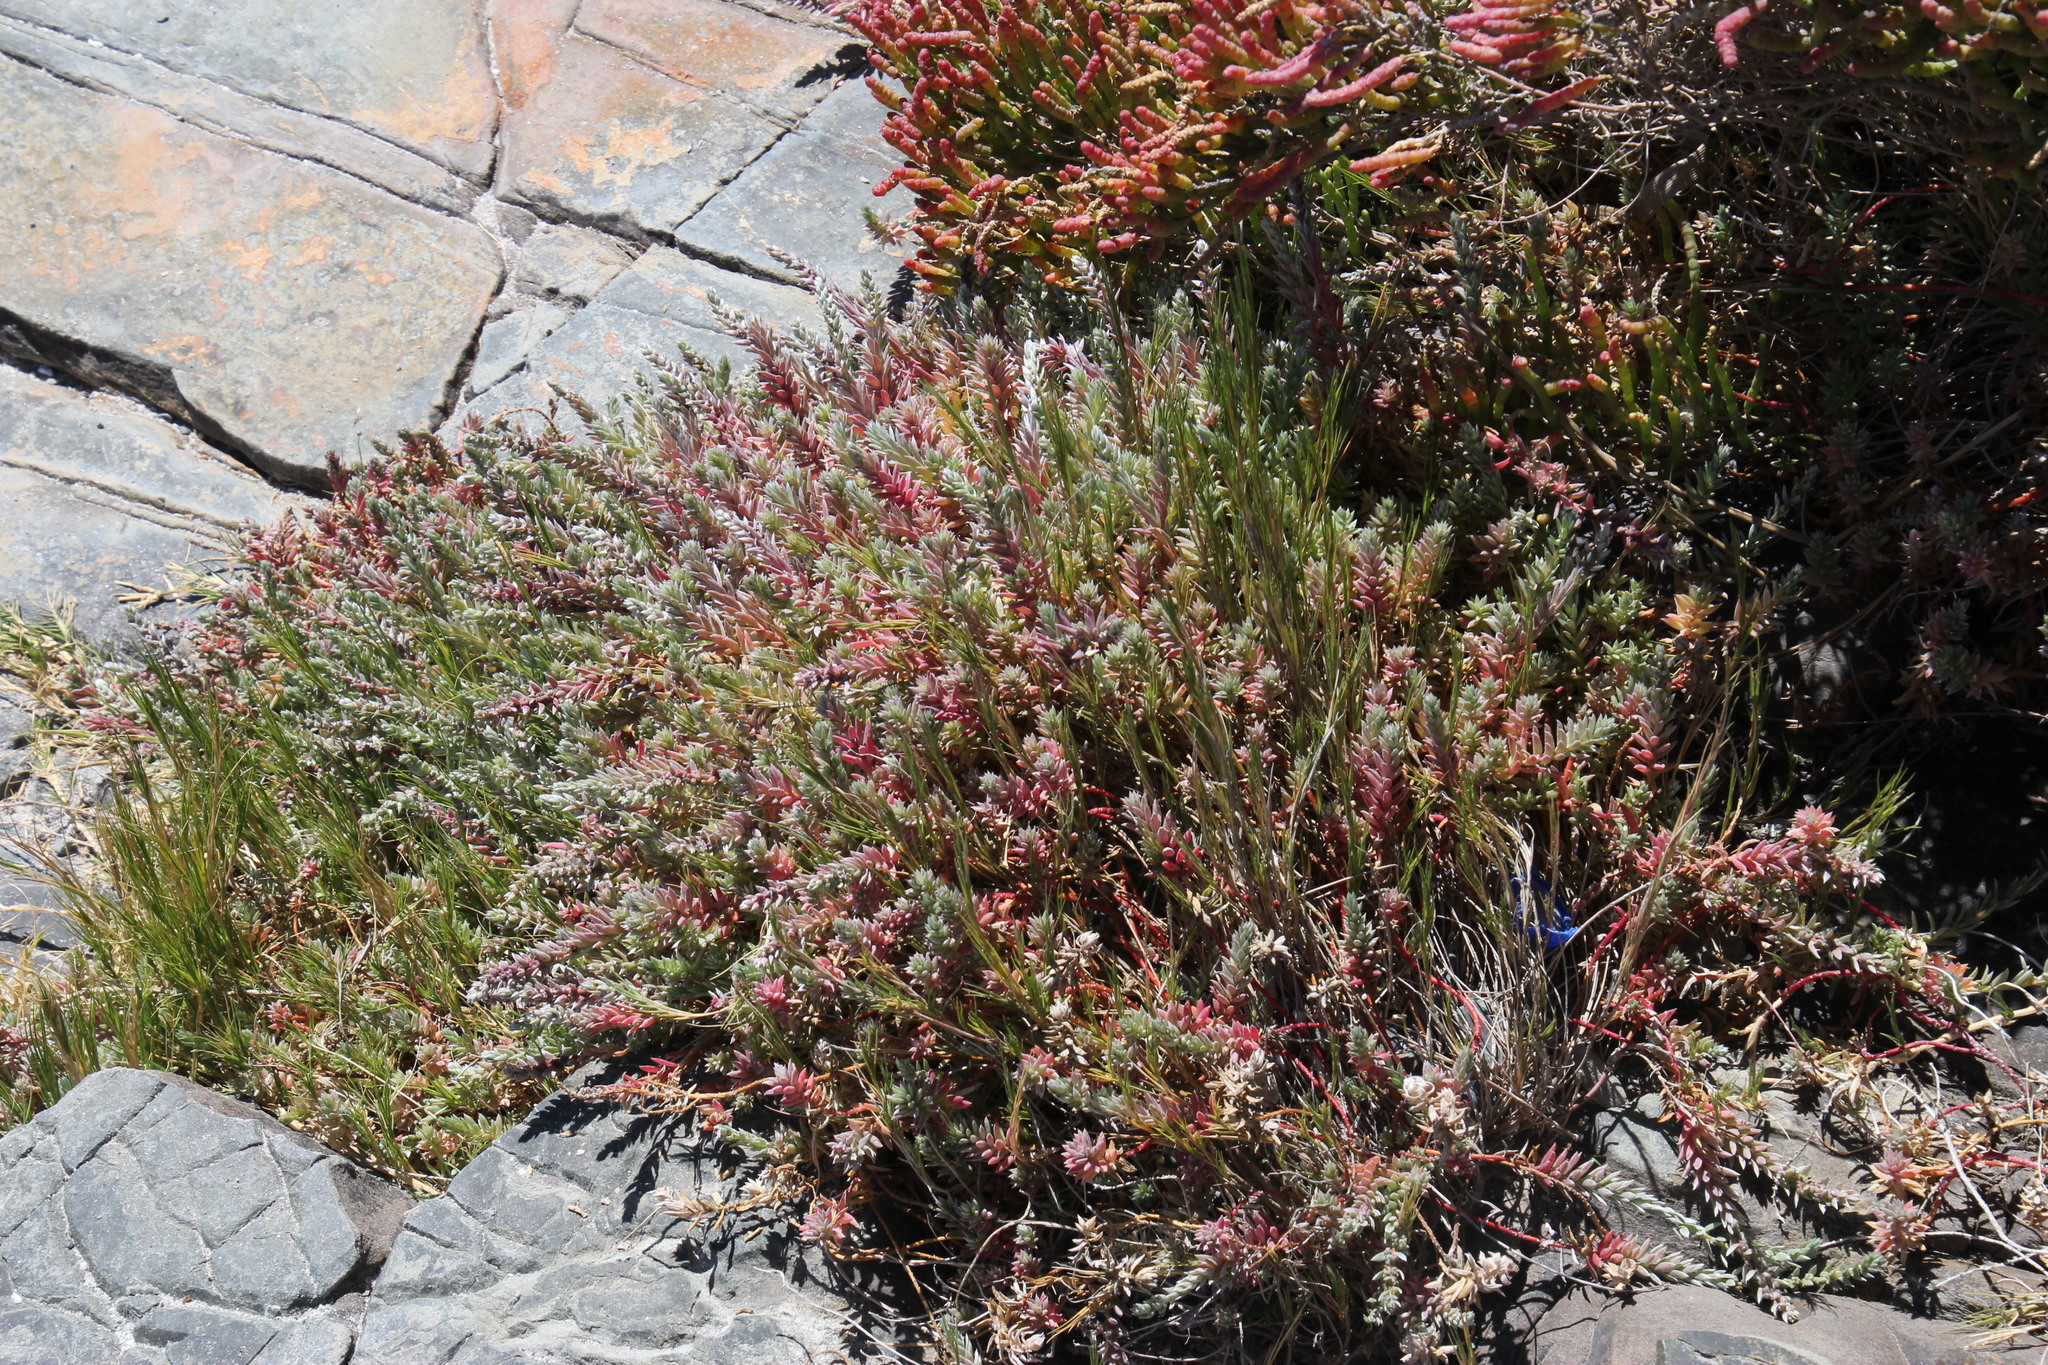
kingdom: Plantae
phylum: Tracheophyta
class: Magnoliopsida
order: Caryophyllales
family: Amaranthaceae
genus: Chenolea
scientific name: Chenolea diffusa
